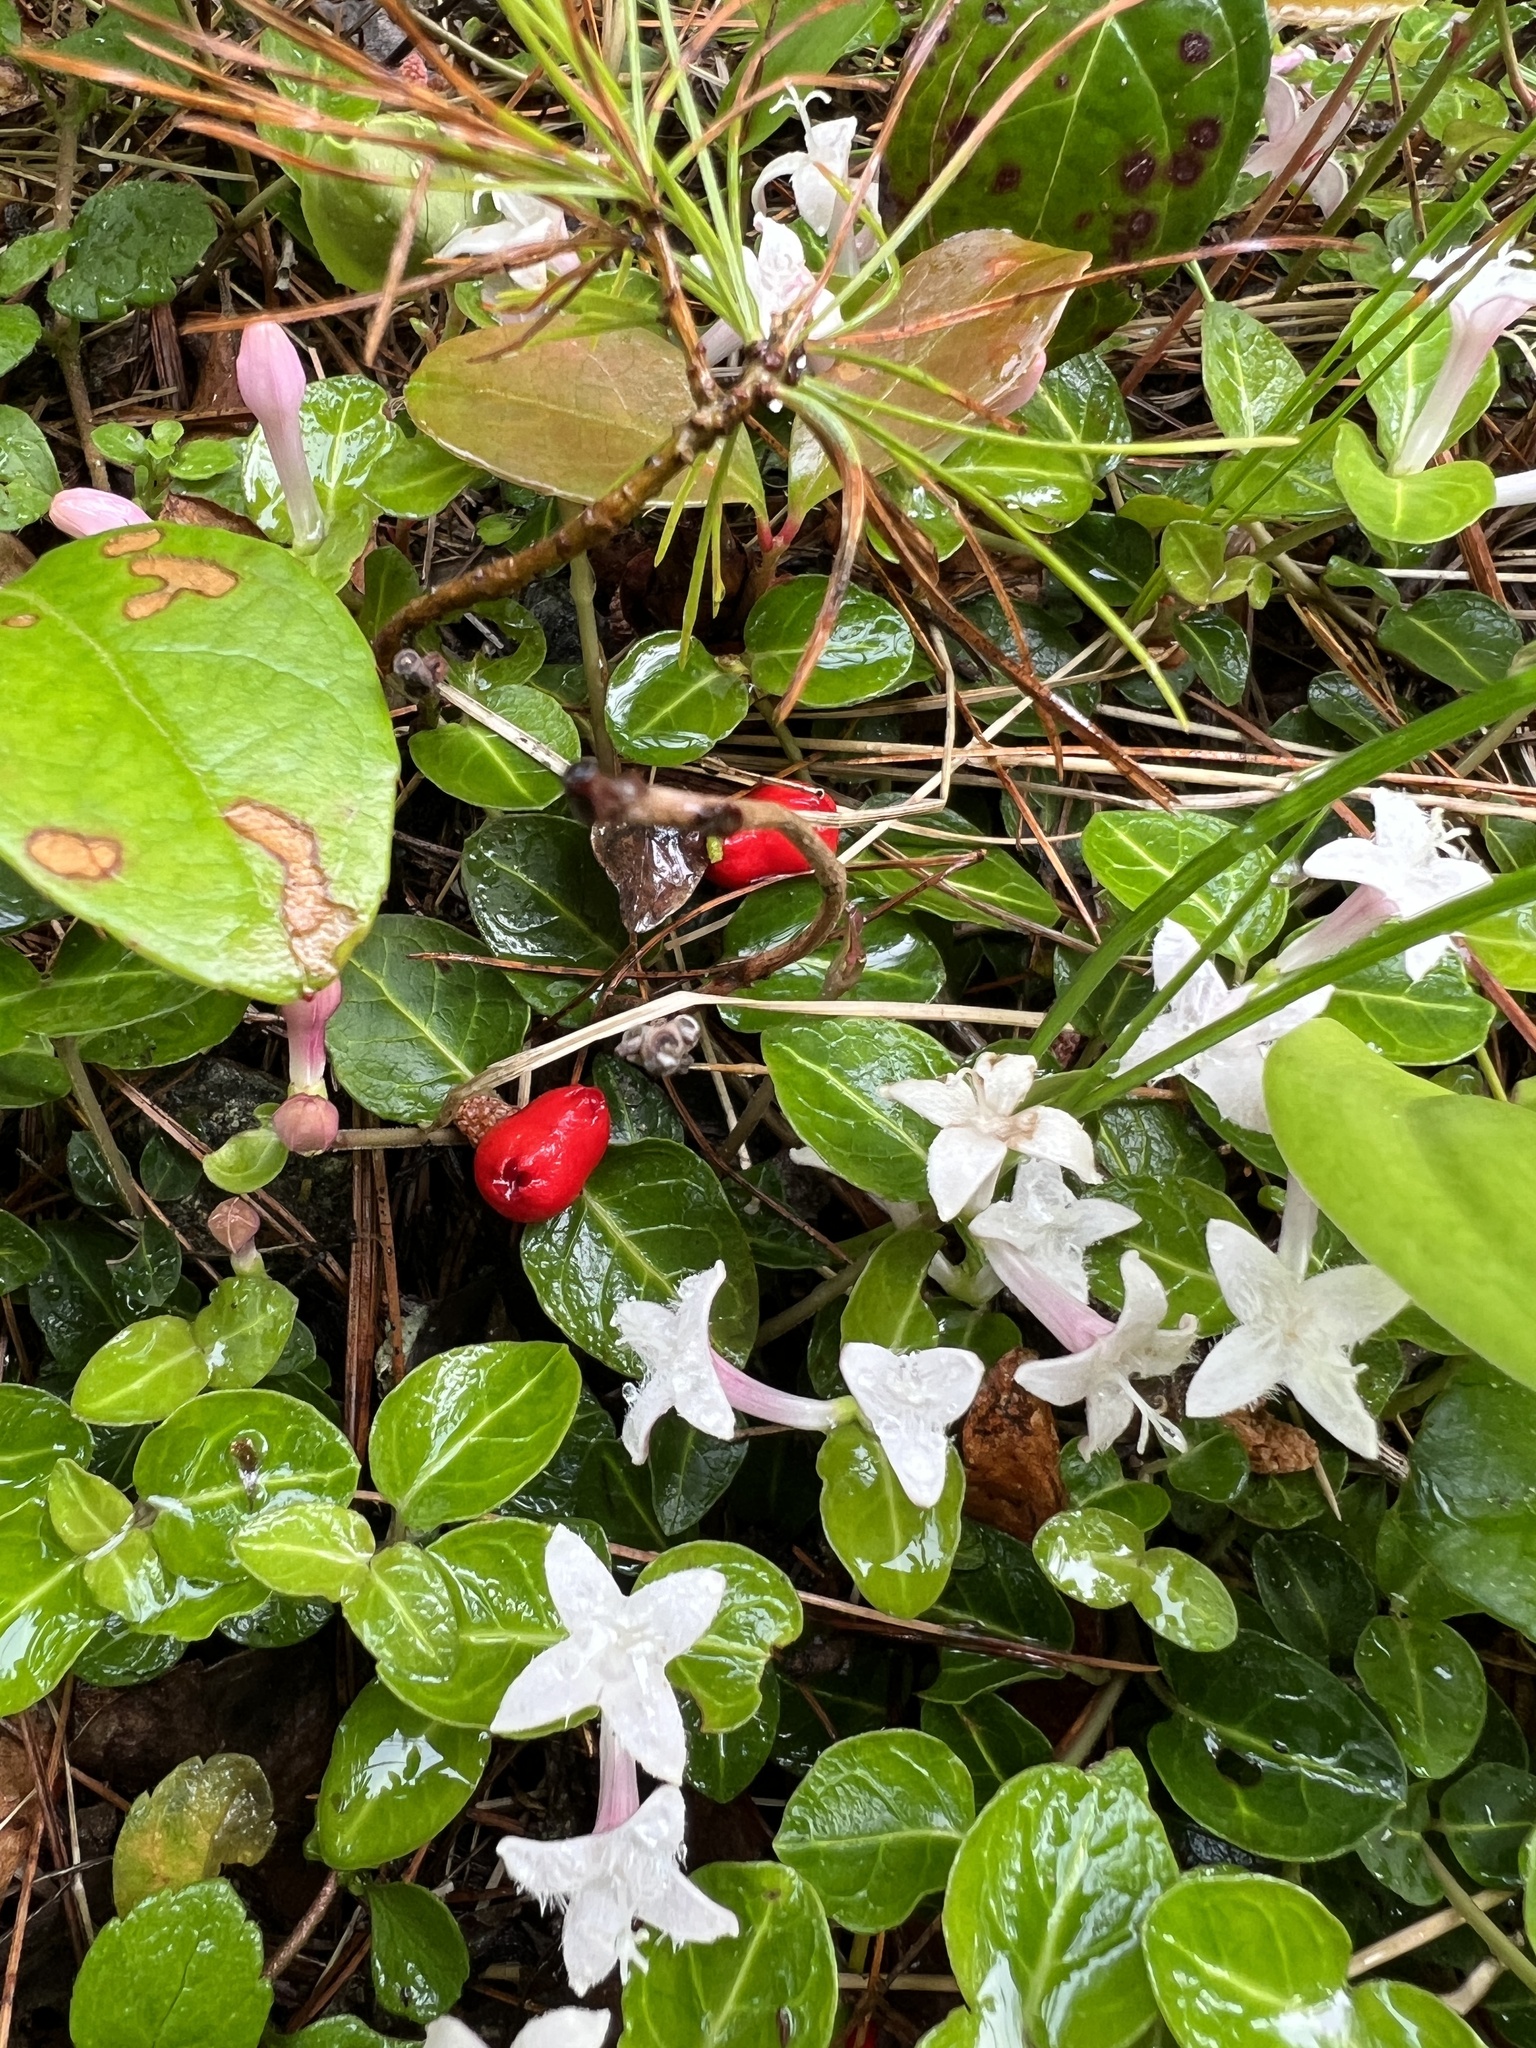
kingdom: Plantae
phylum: Tracheophyta
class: Magnoliopsida
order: Gentianales
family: Rubiaceae
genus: Mitchella
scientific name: Mitchella repens
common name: Partridge-berry
